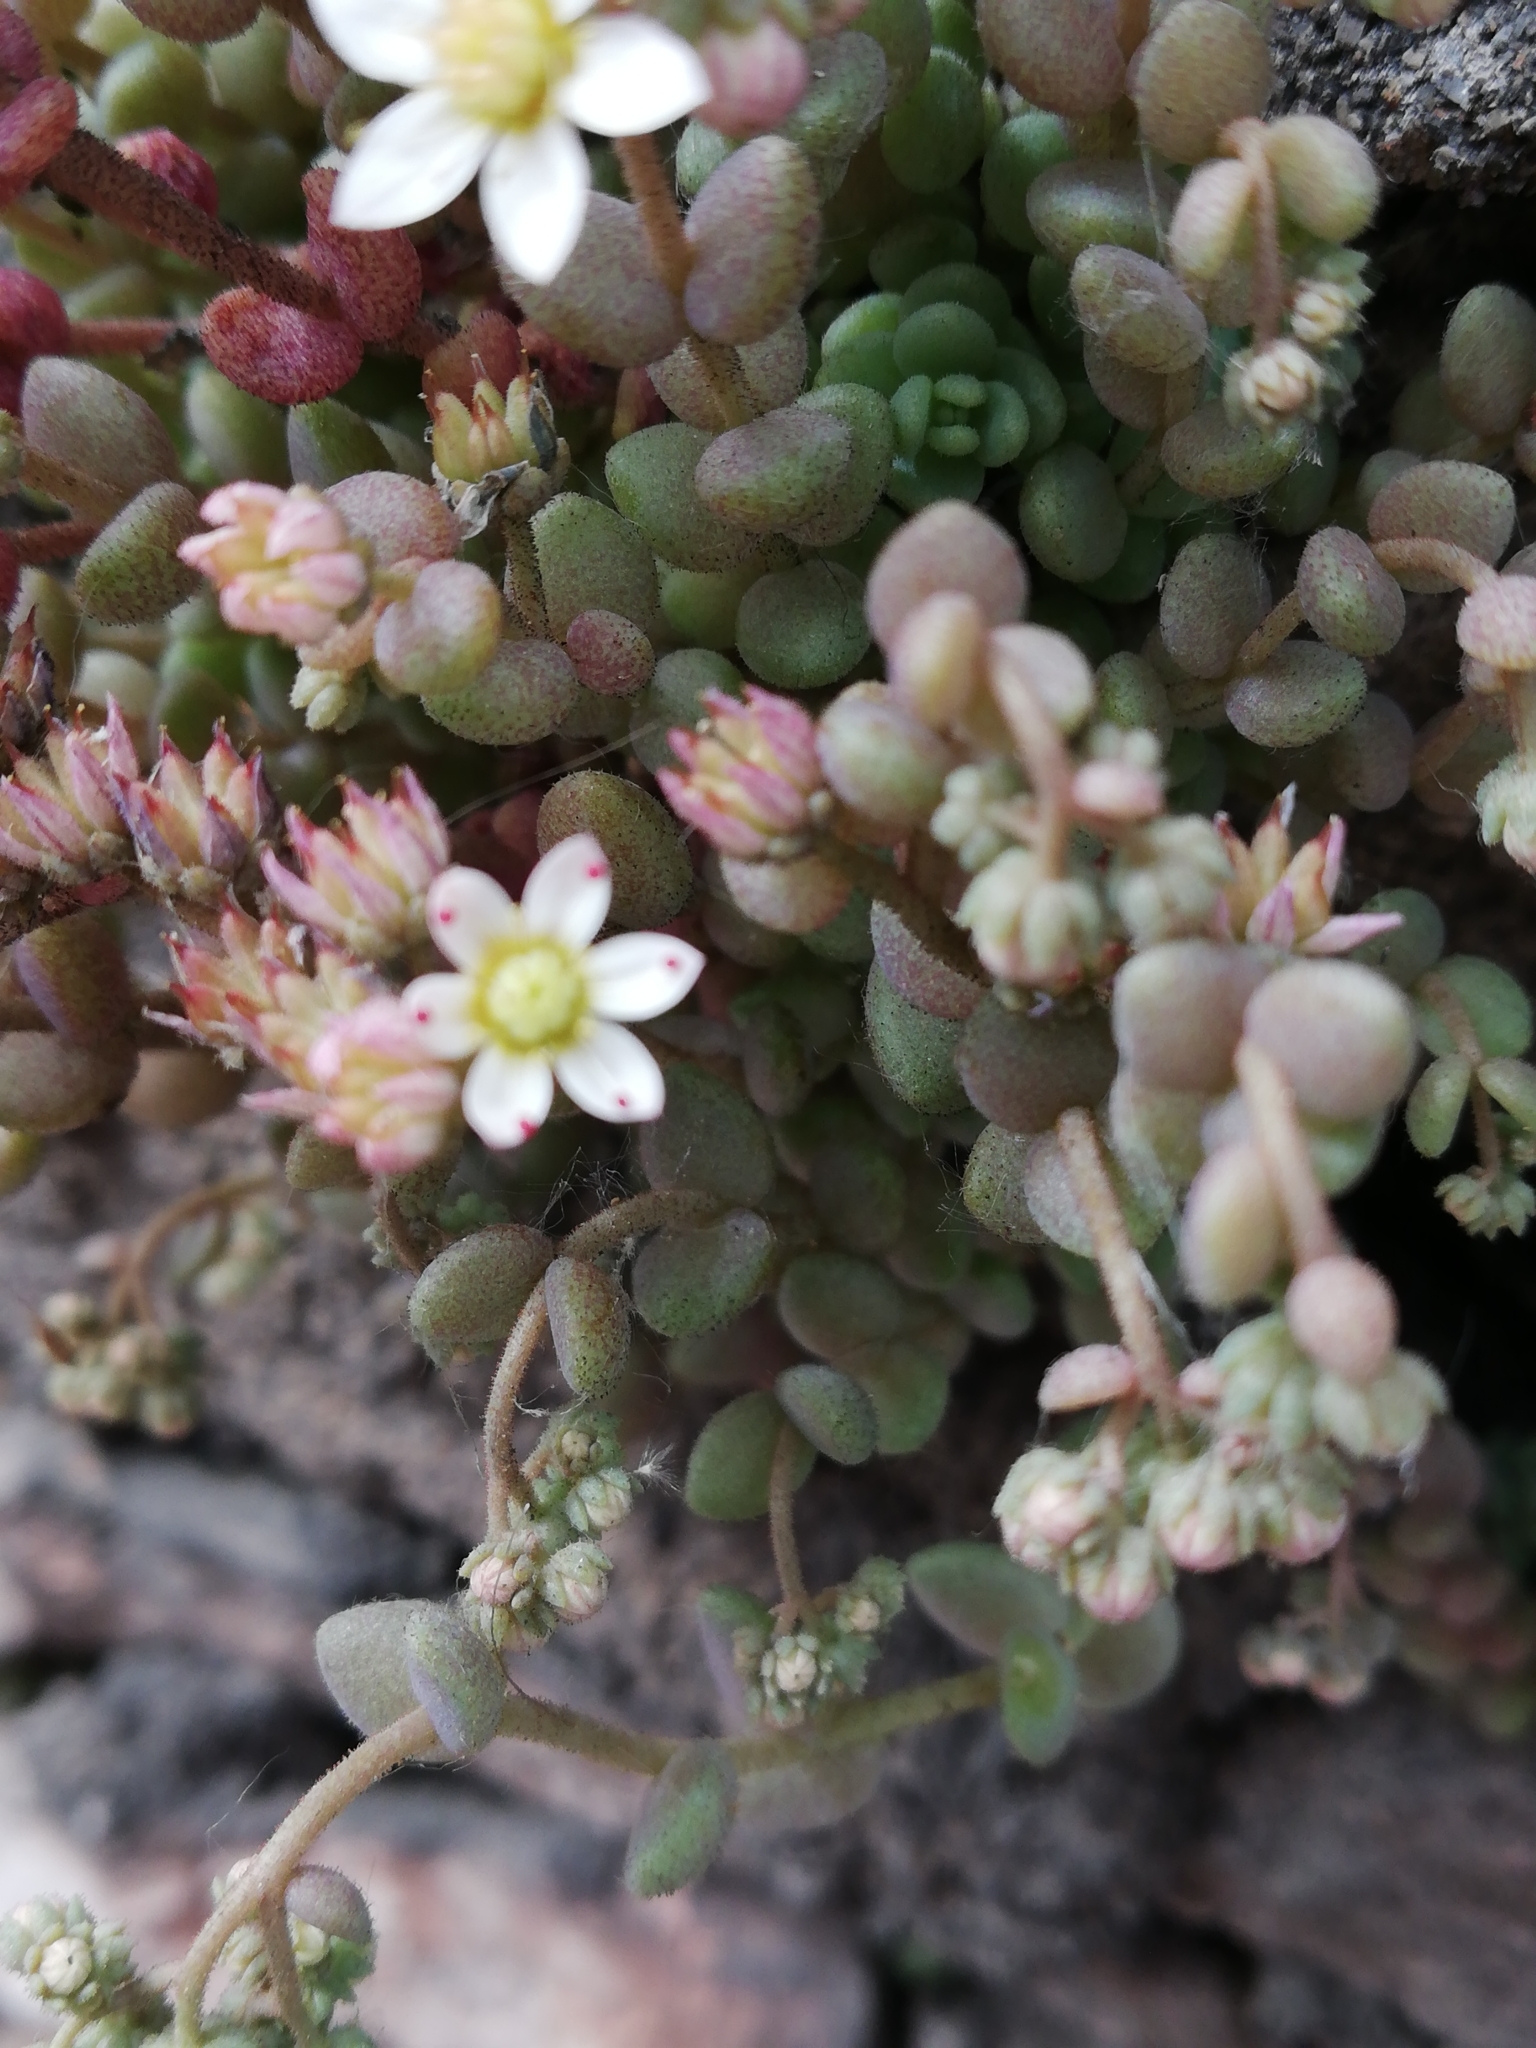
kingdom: Plantae
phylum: Tracheophyta
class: Magnoliopsida
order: Saxifragales
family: Crassulaceae
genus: Sedum
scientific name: Sedum dasyphyllum
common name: Thick-leaf stonecrop
